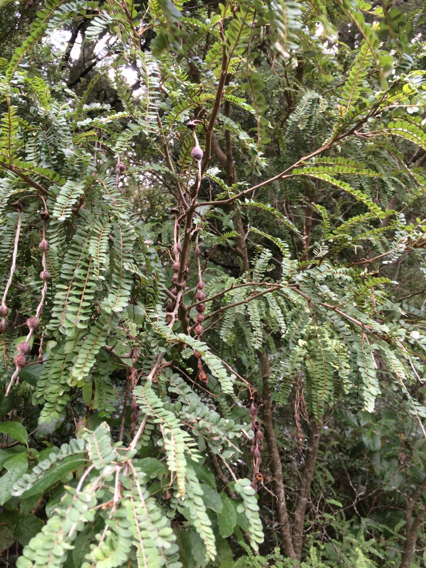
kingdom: Plantae
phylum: Tracheophyta
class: Magnoliopsida
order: Fabales
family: Fabaceae
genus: Sophora
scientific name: Sophora chathamica
